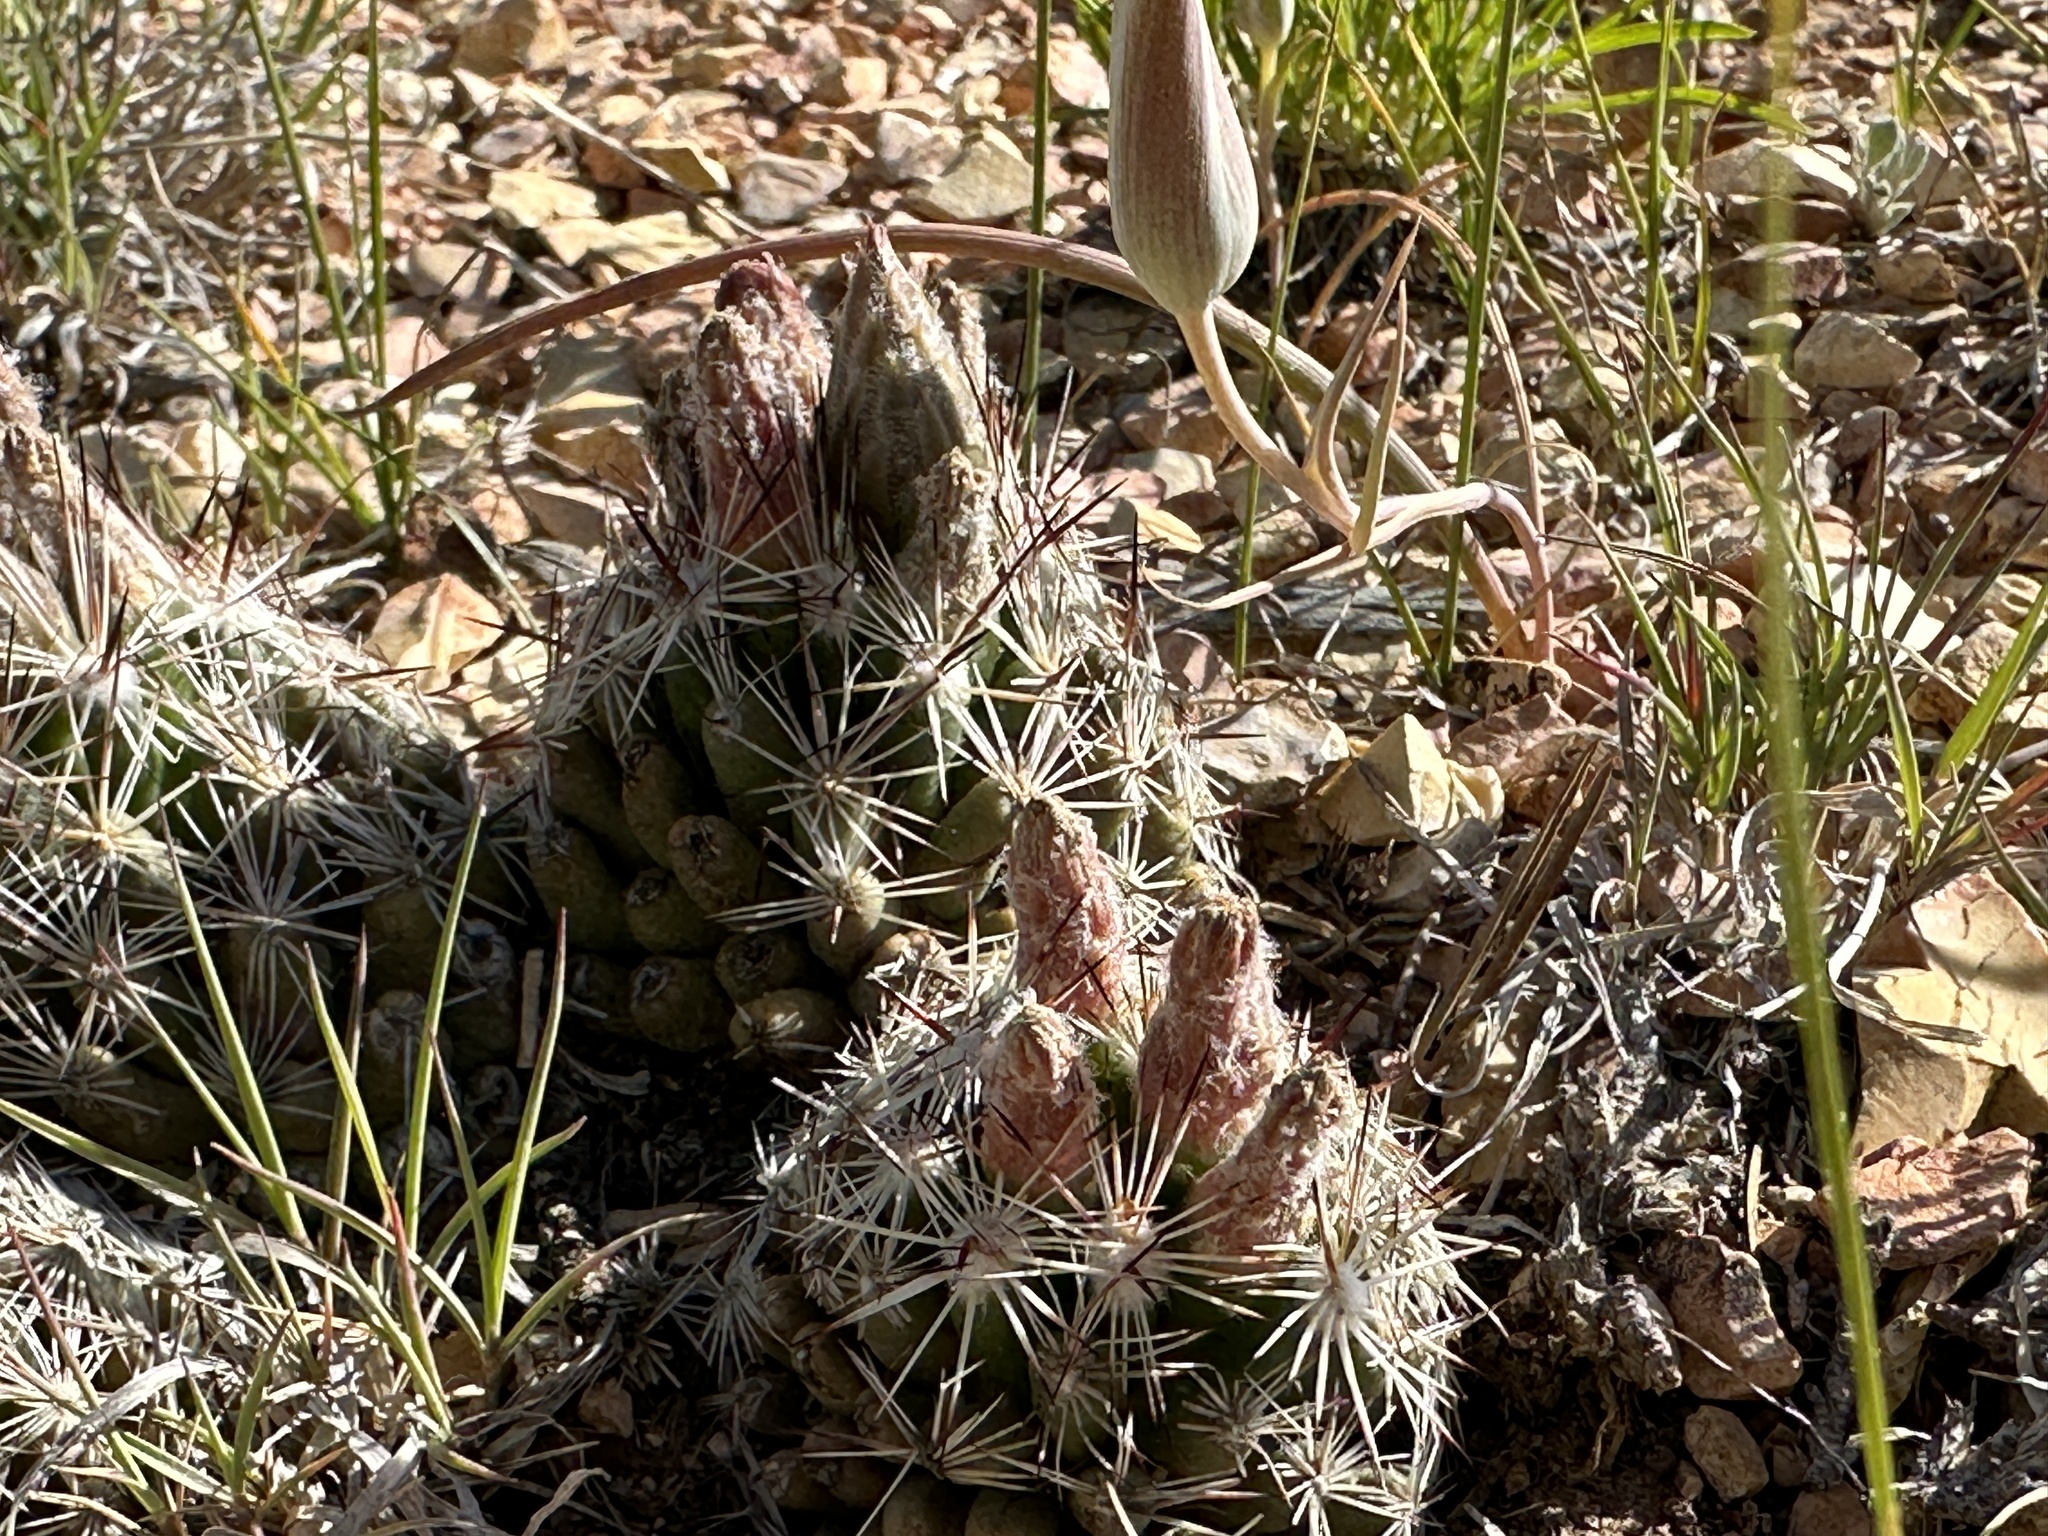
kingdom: Plantae
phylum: Tracheophyta
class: Magnoliopsida
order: Caryophyllales
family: Cactaceae
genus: Pelecyphora
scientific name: Pelecyphora vivipara
